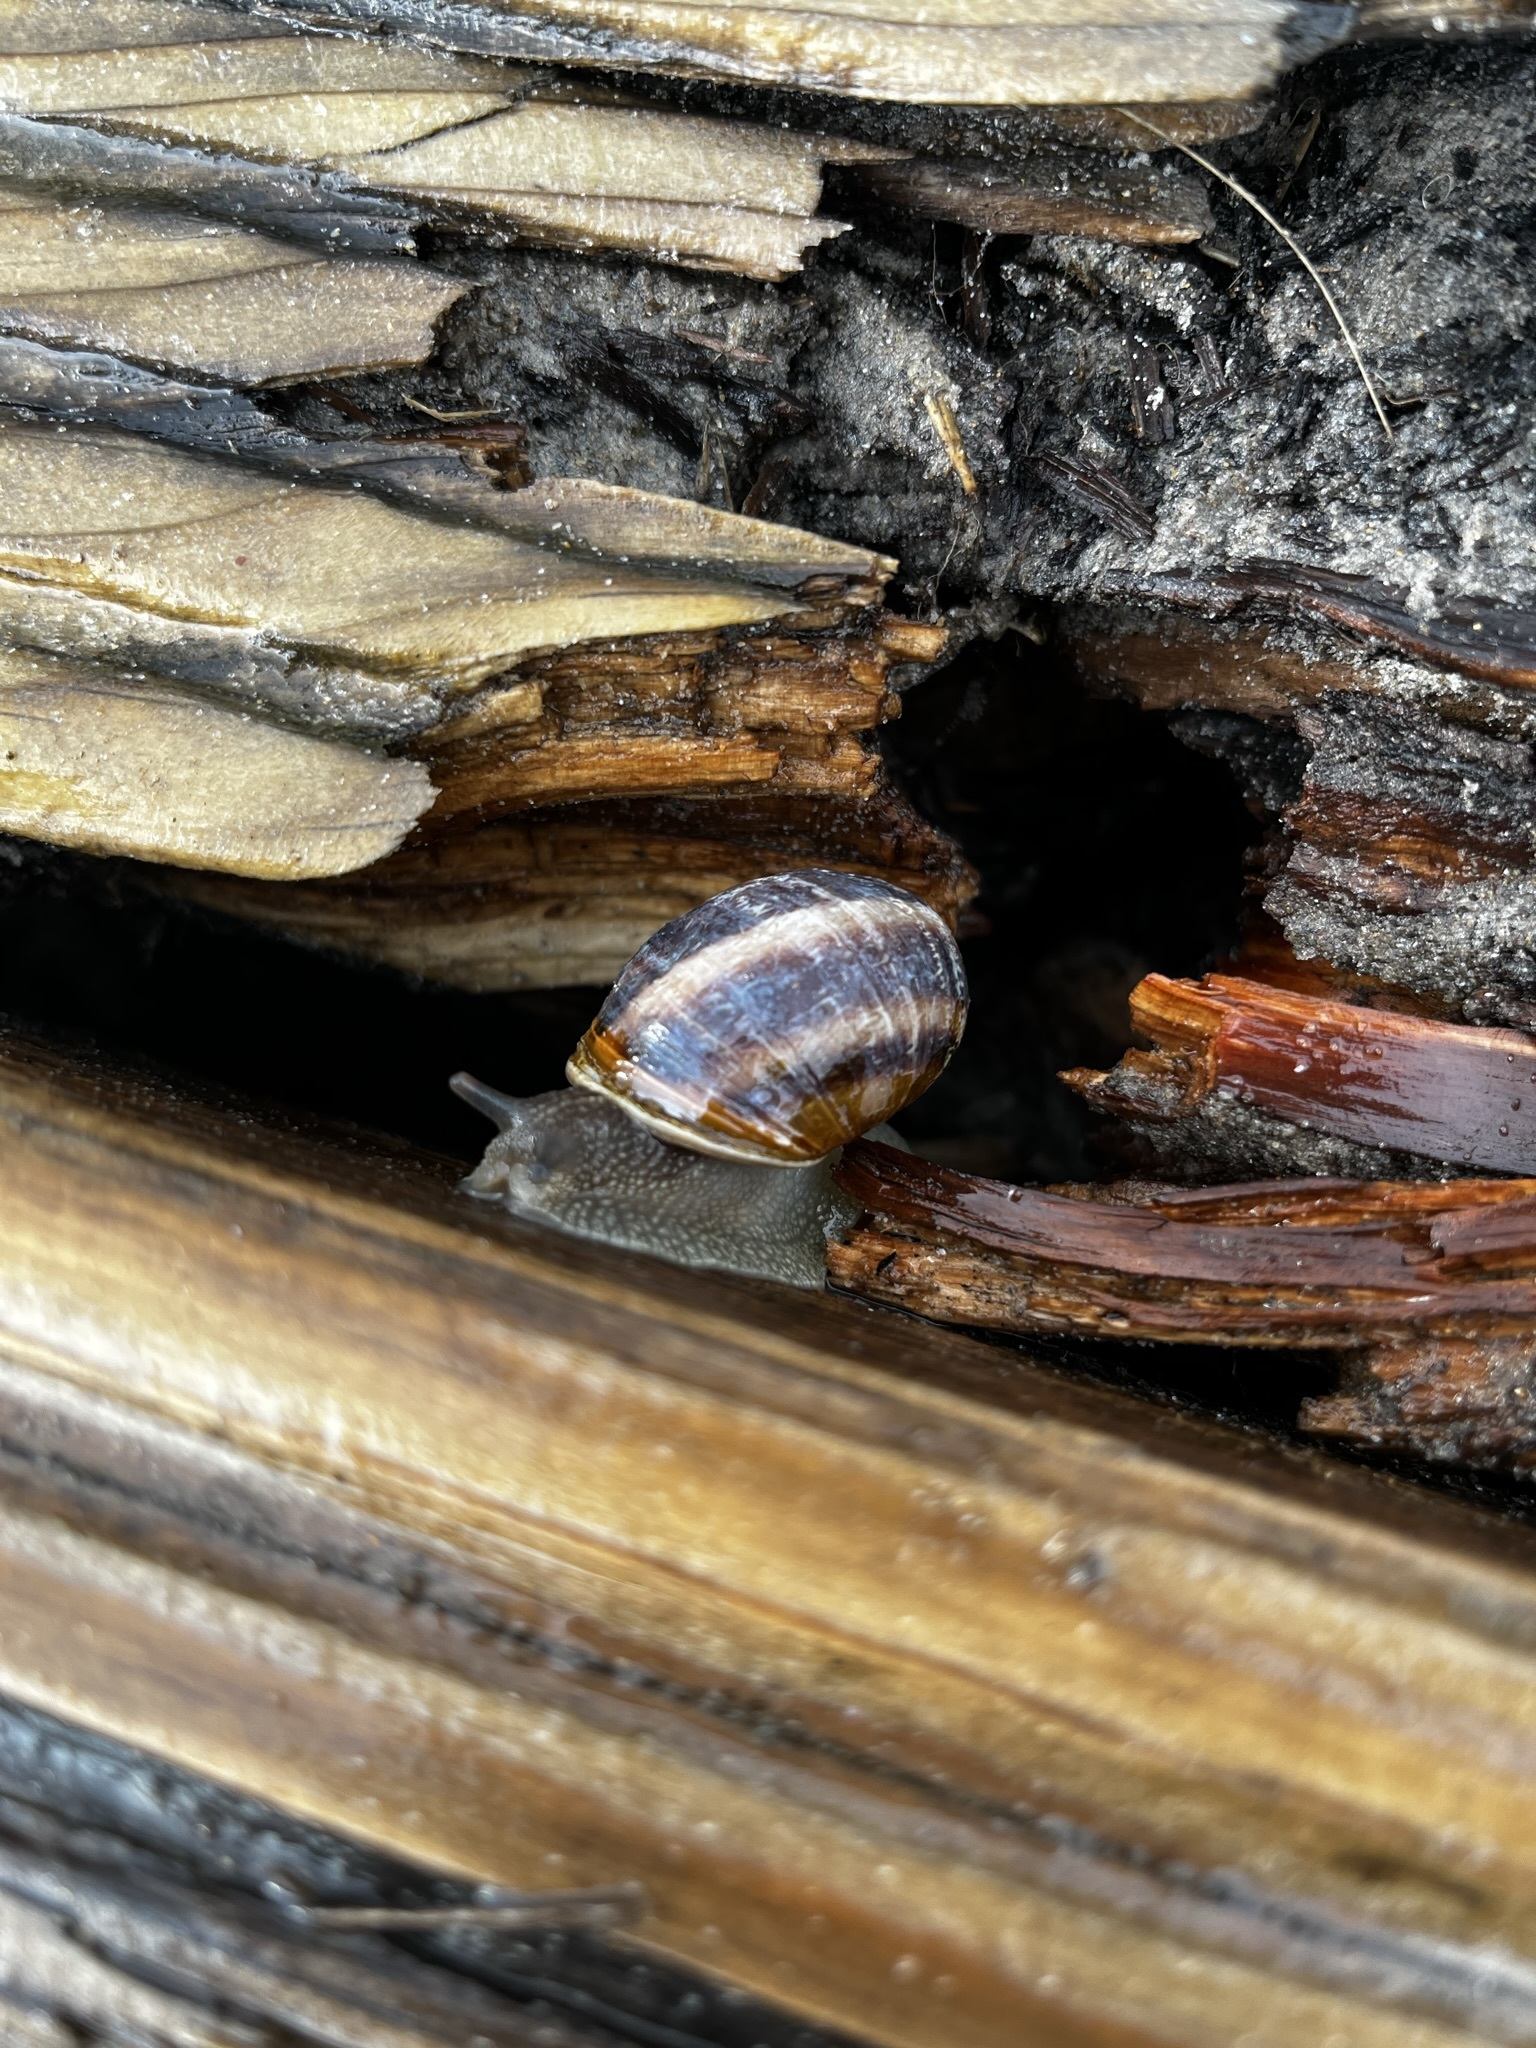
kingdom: Animalia
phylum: Mollusca
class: Gastropoda
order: Stylommatophora
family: Helicidae
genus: Cornu
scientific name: Cornu aspersum
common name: Brown garden snail
